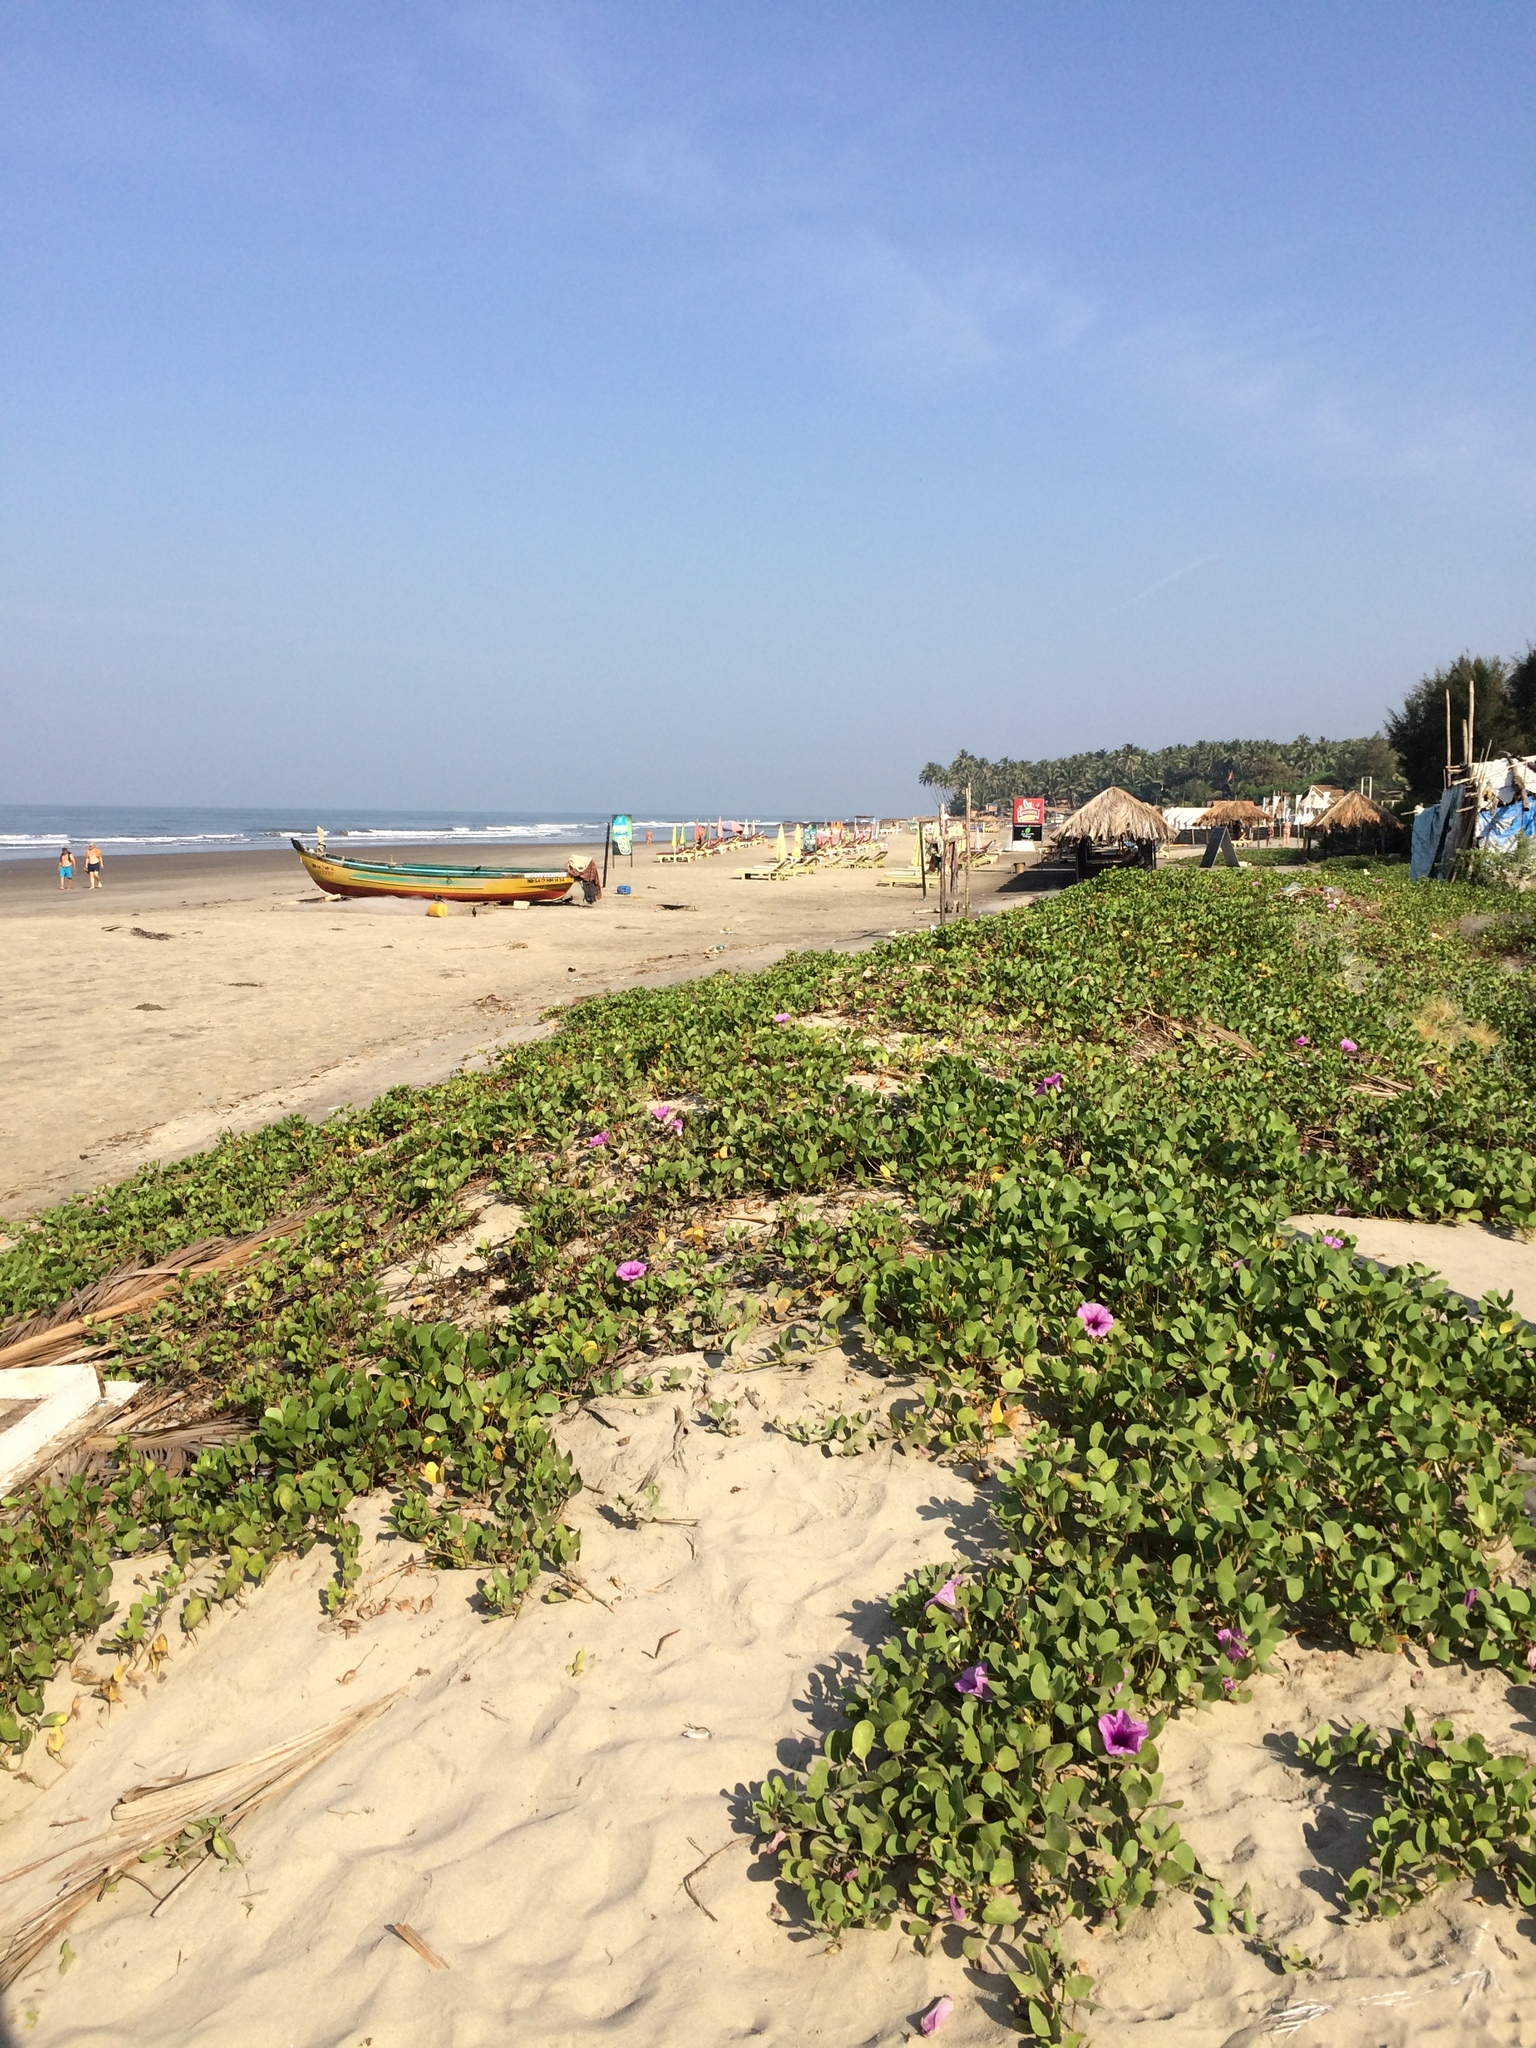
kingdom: Plantae
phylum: Tracheophyta
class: Magnoliopsida
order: Solanales
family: Convolvulaceae
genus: Ipomoea
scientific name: Ipomoea pes-caprae
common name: Beach morning glory
